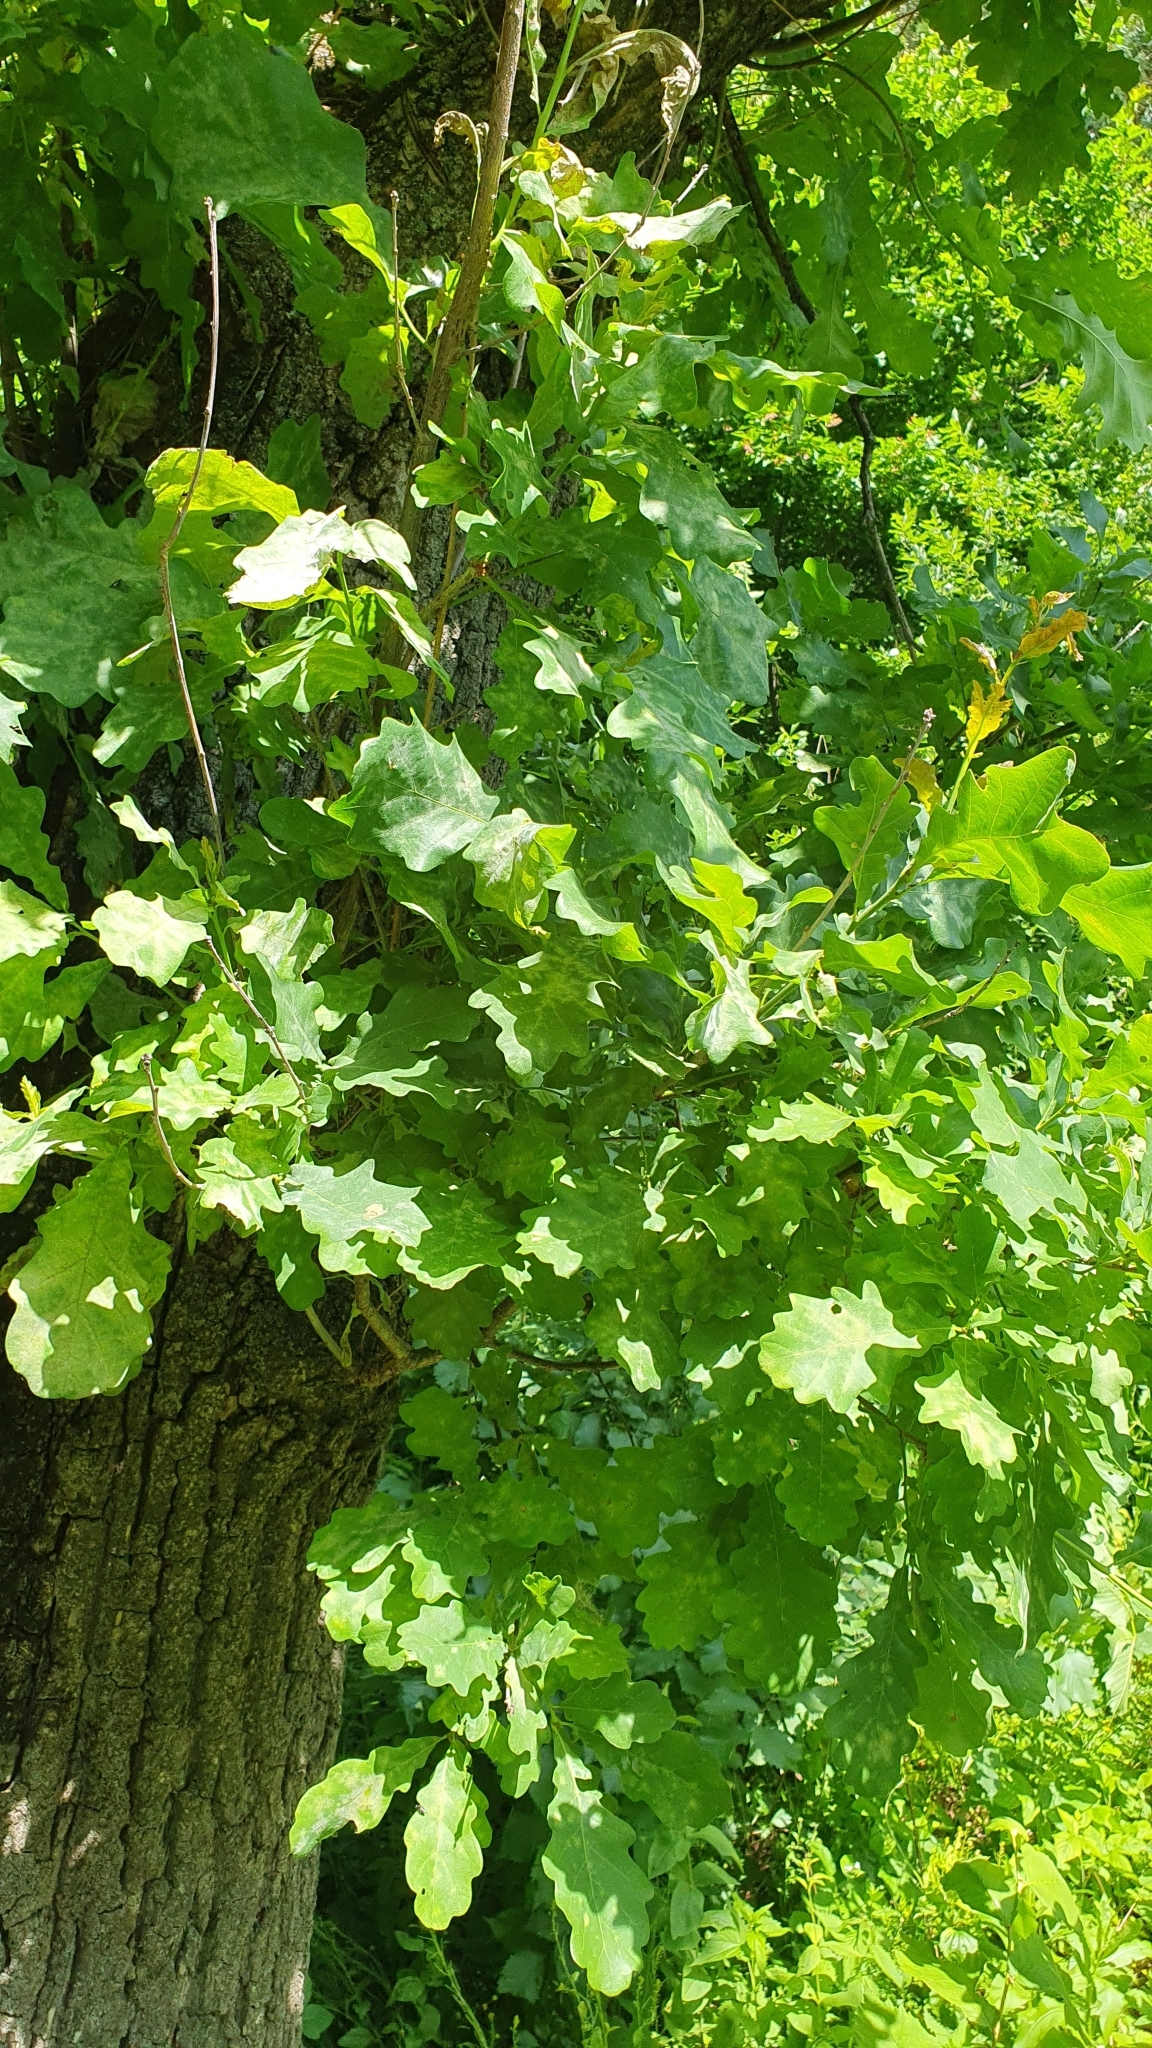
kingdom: Plantae
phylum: Tracheophyta
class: Magnoliopsida
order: Fagales
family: Fagaceae
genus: Quercus
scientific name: Quercus robur
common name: Pedunculate oak
